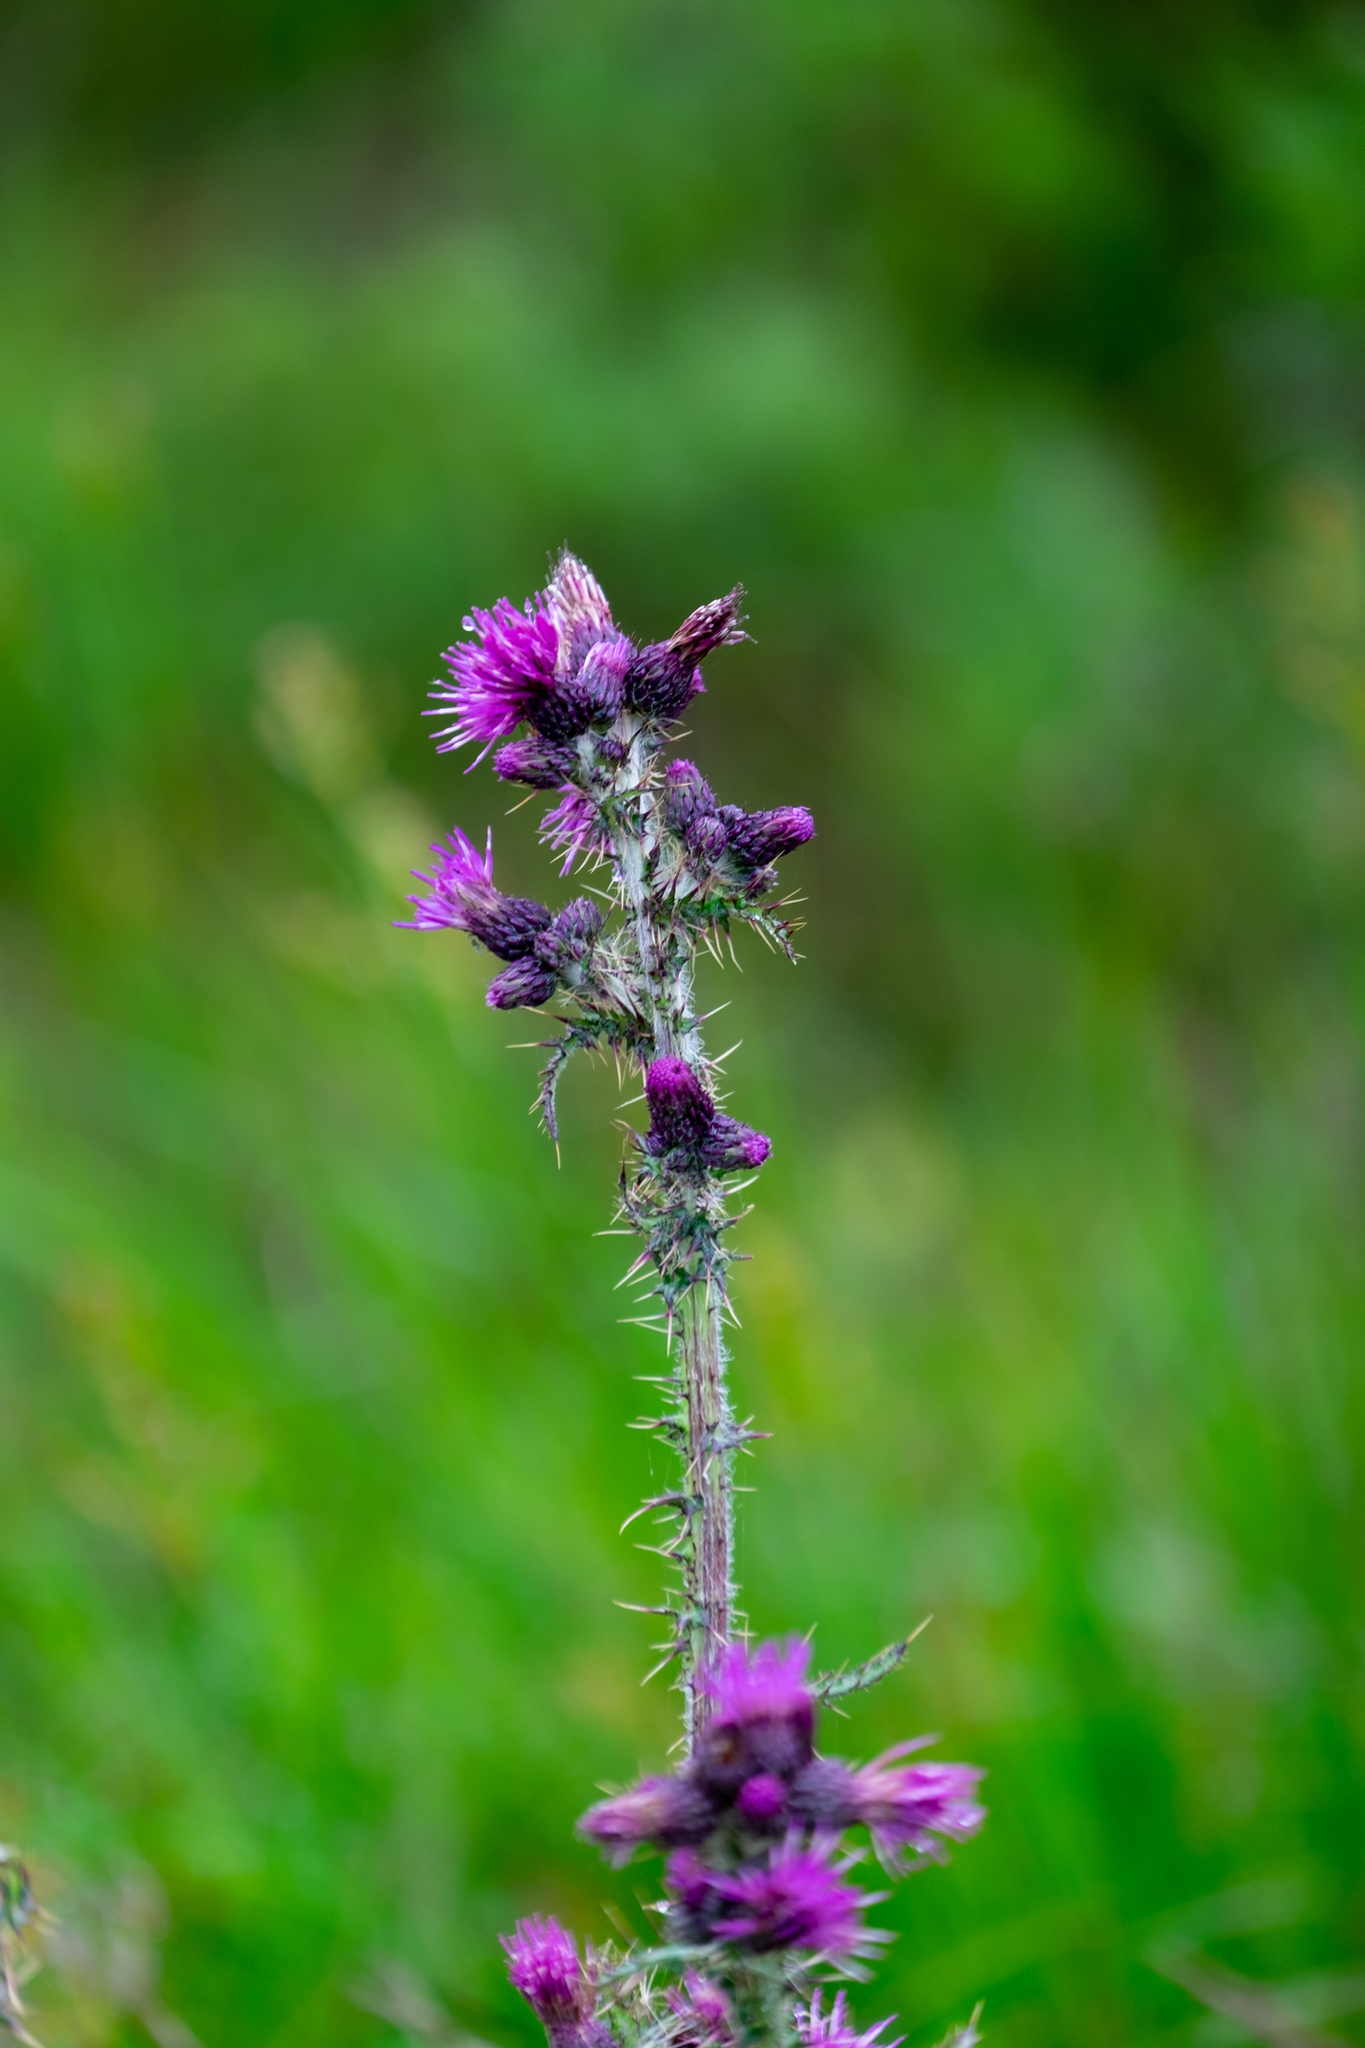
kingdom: Plantae
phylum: Tracheophyta
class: Magnoliopsida
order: Asterales
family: Asteraceae
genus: Cirsium
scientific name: Cirsium palustre
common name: Marsh thistle
